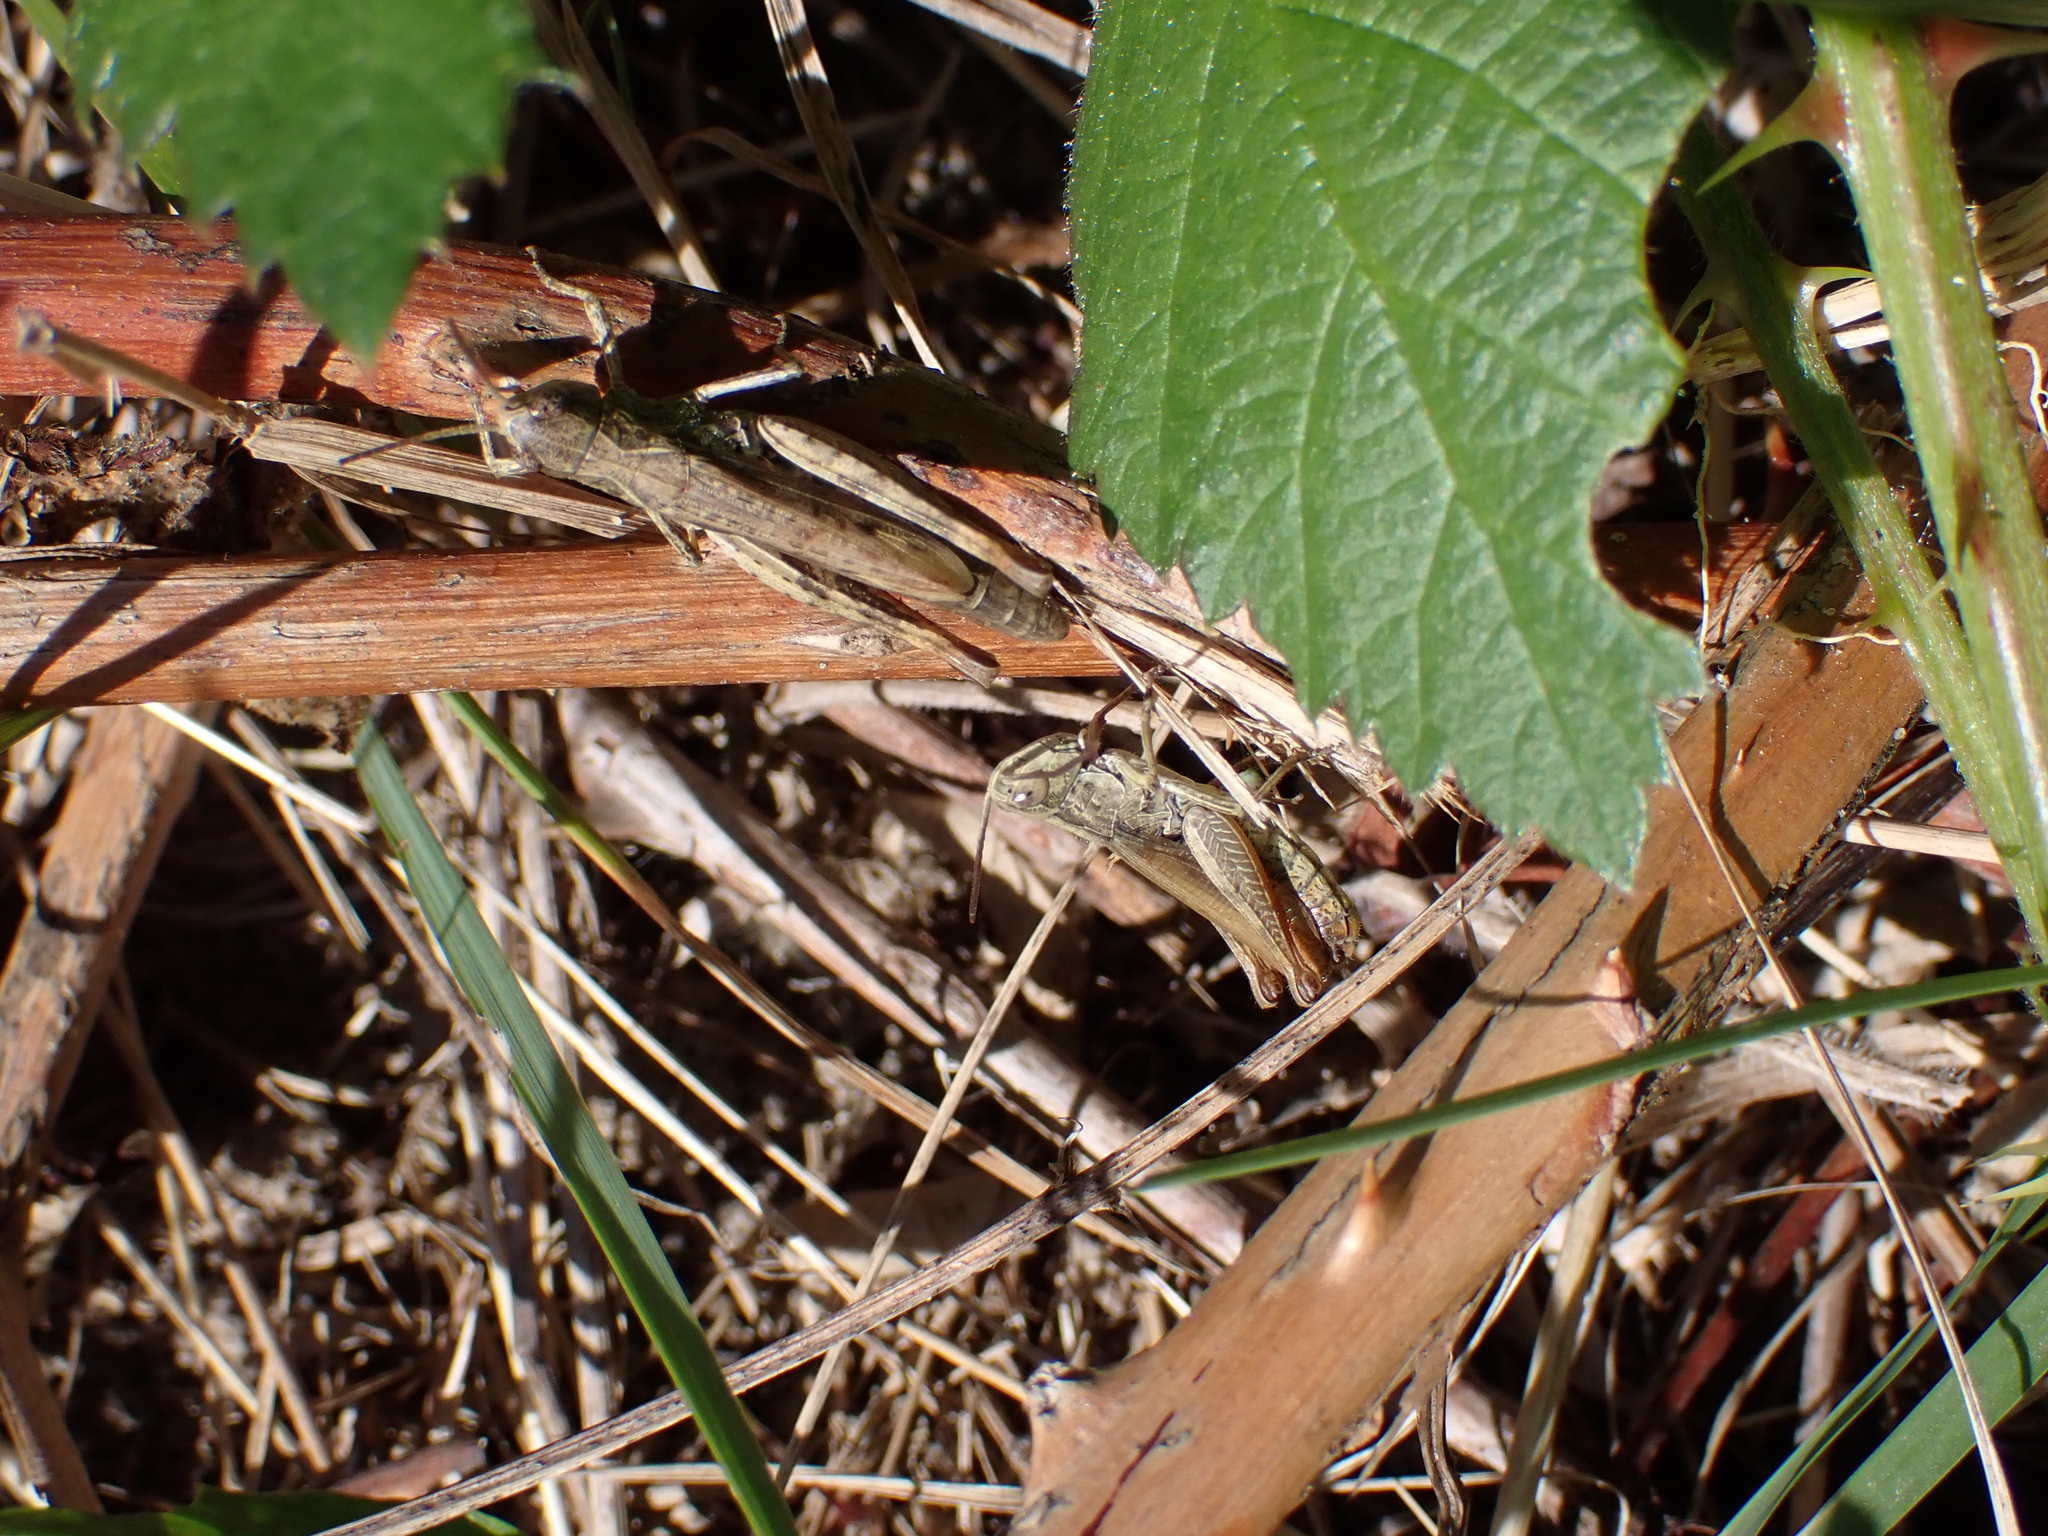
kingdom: Animalia
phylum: Arthropoda
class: Insecta
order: Orthoptera
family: Acrididae
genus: Chorthippus
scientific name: Chorthippus apricarius
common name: Upland field grasshopper
